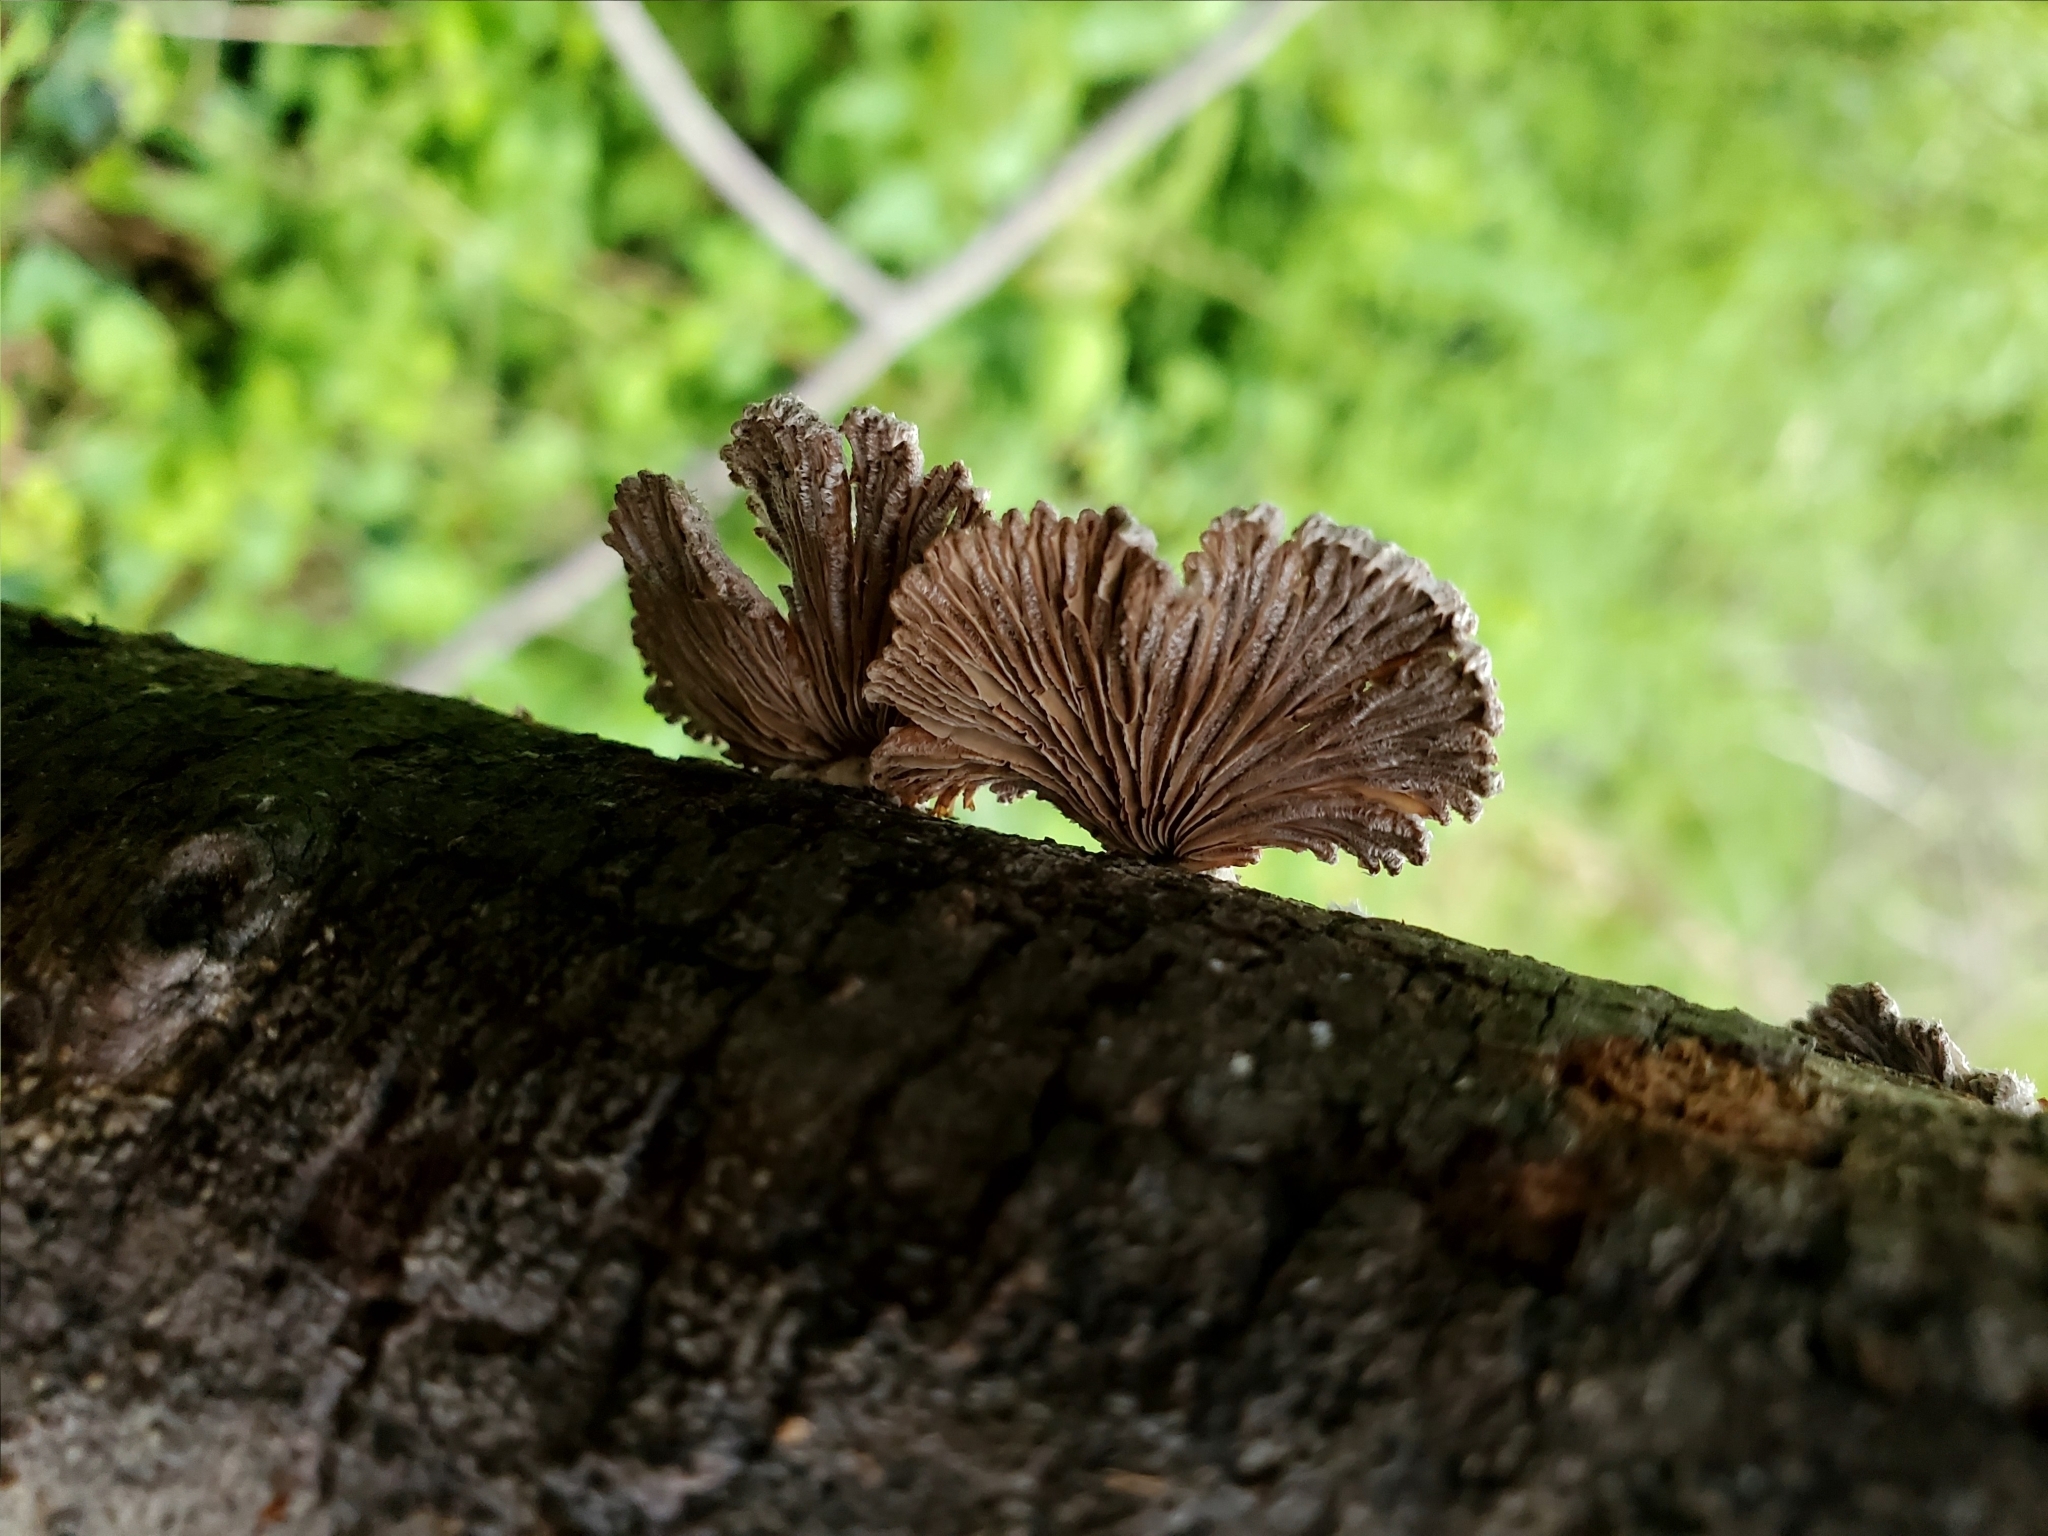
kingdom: Fungi
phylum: Basidiomycota
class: Agaricomycetes
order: Agaricales
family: Schizophyllaceae
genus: Schizophyllum
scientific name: Schizophyllum commune
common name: Common porecrust
